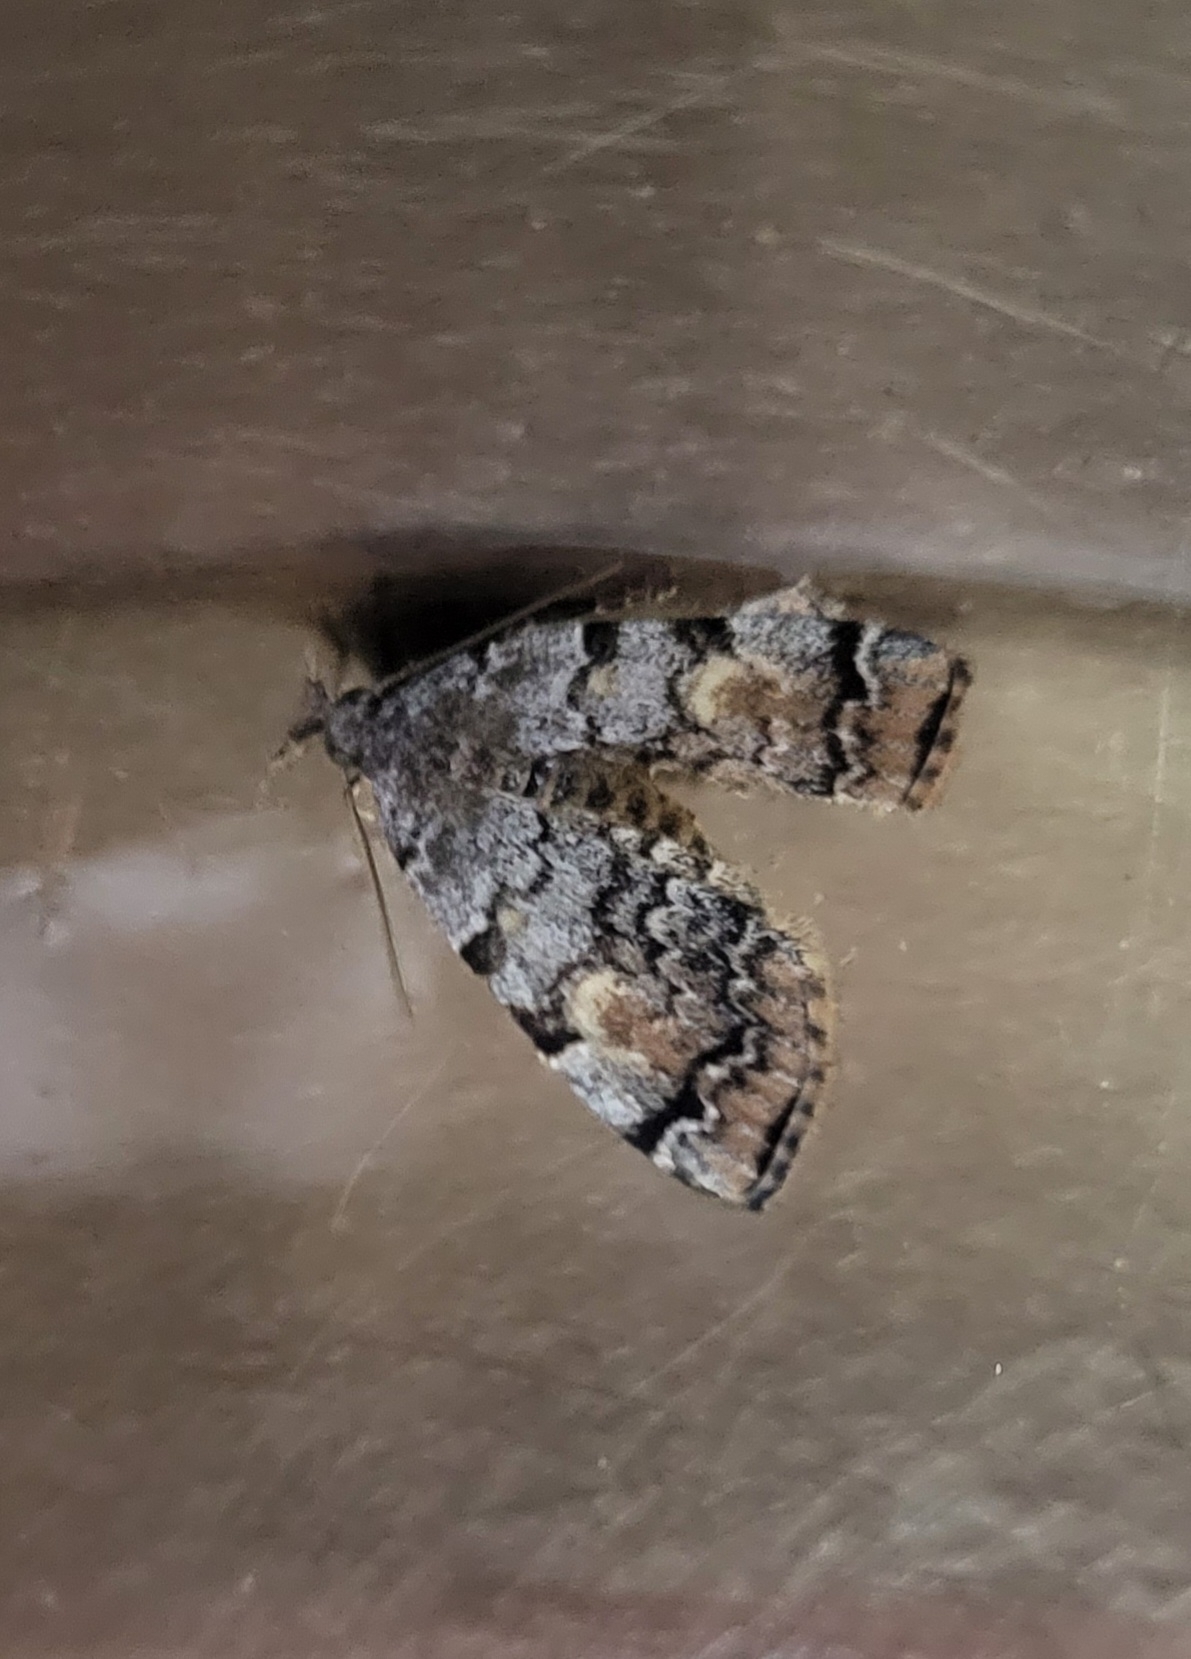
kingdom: Animalia
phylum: Arthropoda
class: Insecta
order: Lepidoptera
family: Erebidae
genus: Idia
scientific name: Idia americalis
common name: American idia moth
